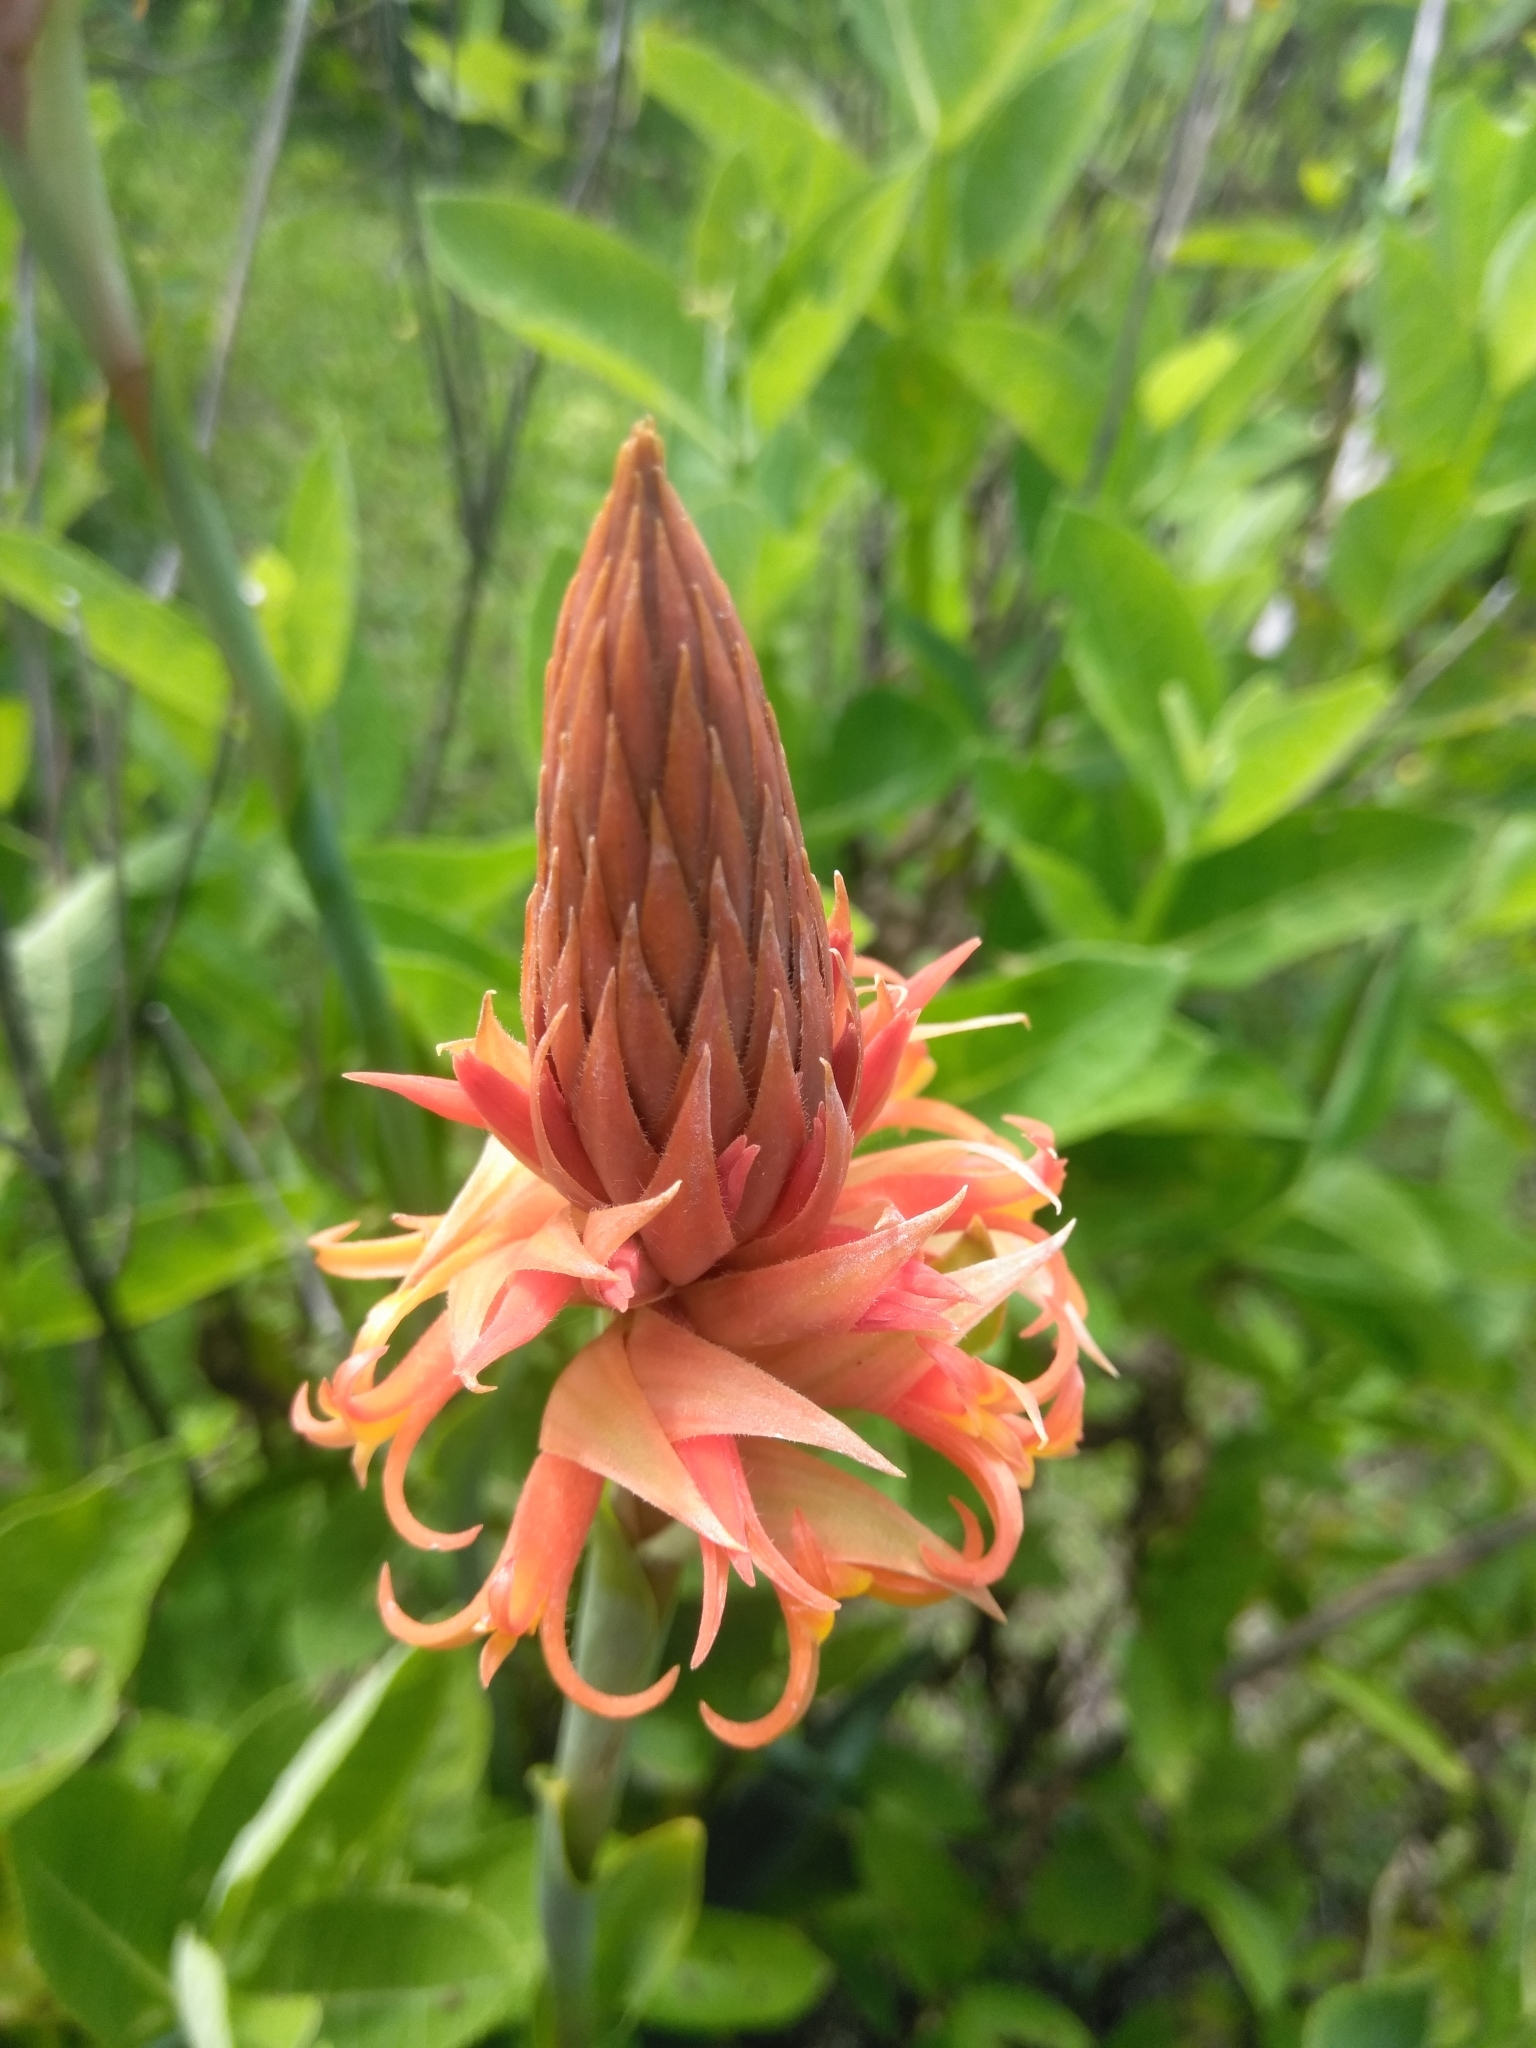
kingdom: Plantae
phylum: Tracheophyta
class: Liliopsida
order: Asparagales
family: Orchidaceae
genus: Dichromanthus
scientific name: Dichromanthus cinnabarinus
